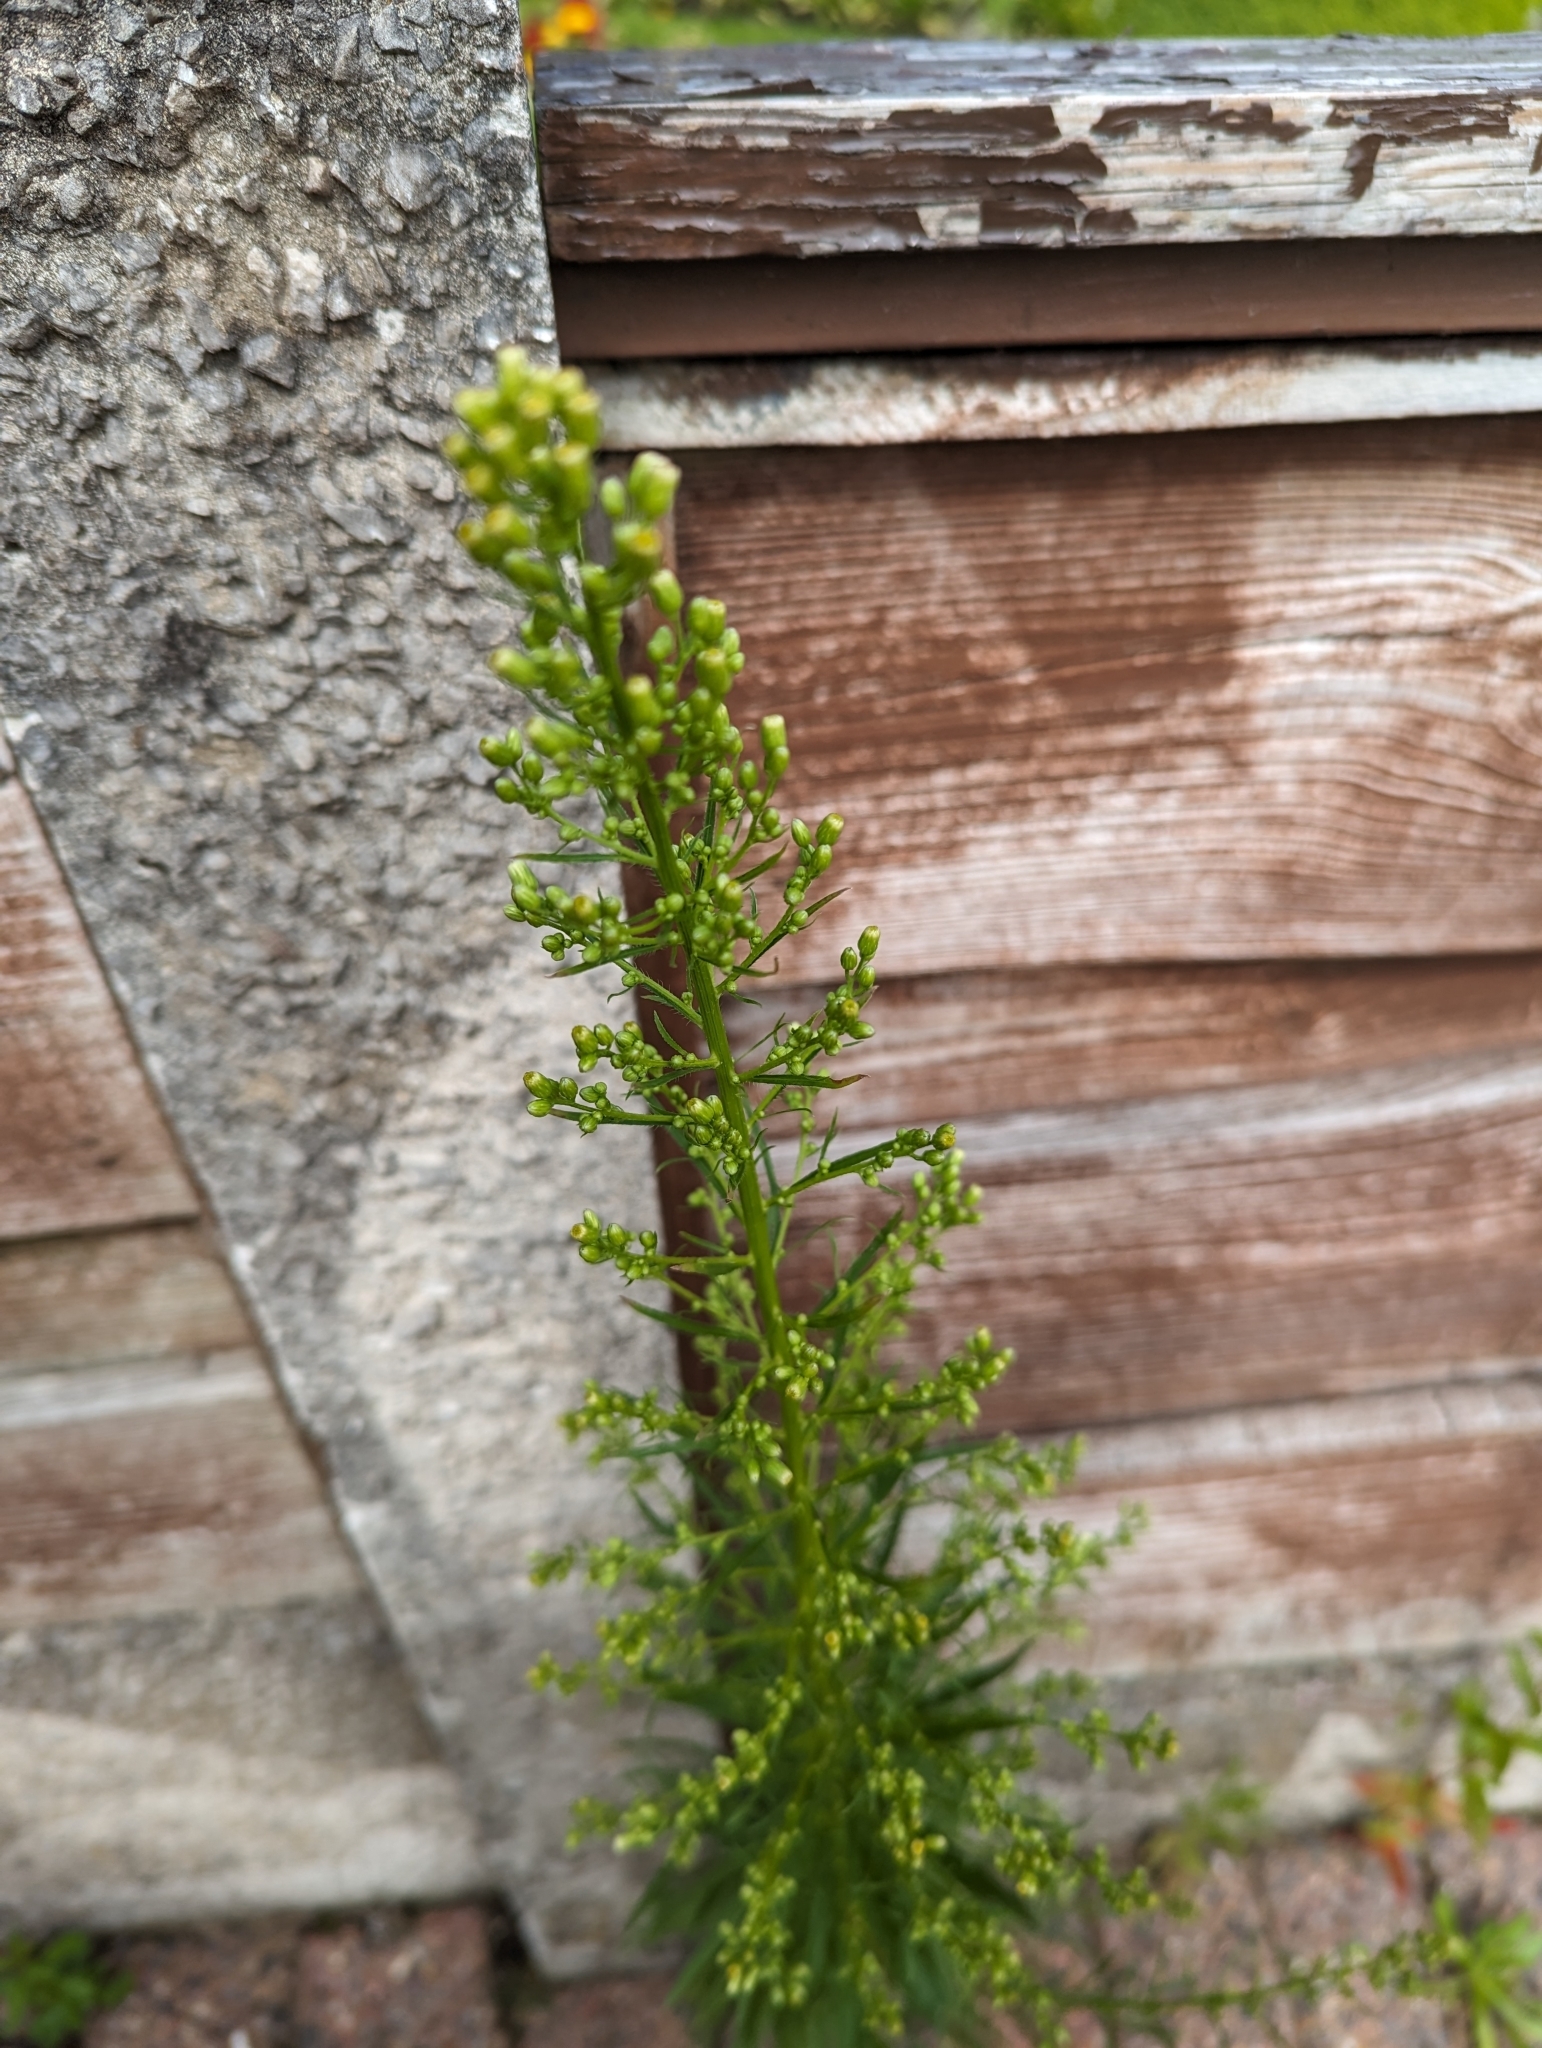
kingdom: Plantae
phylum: Tracheophyta
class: Magnoliopsida
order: Asterales
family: Asteraceae
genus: Erigeron
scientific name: Erigeron canadensis
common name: Canadian fleabane
